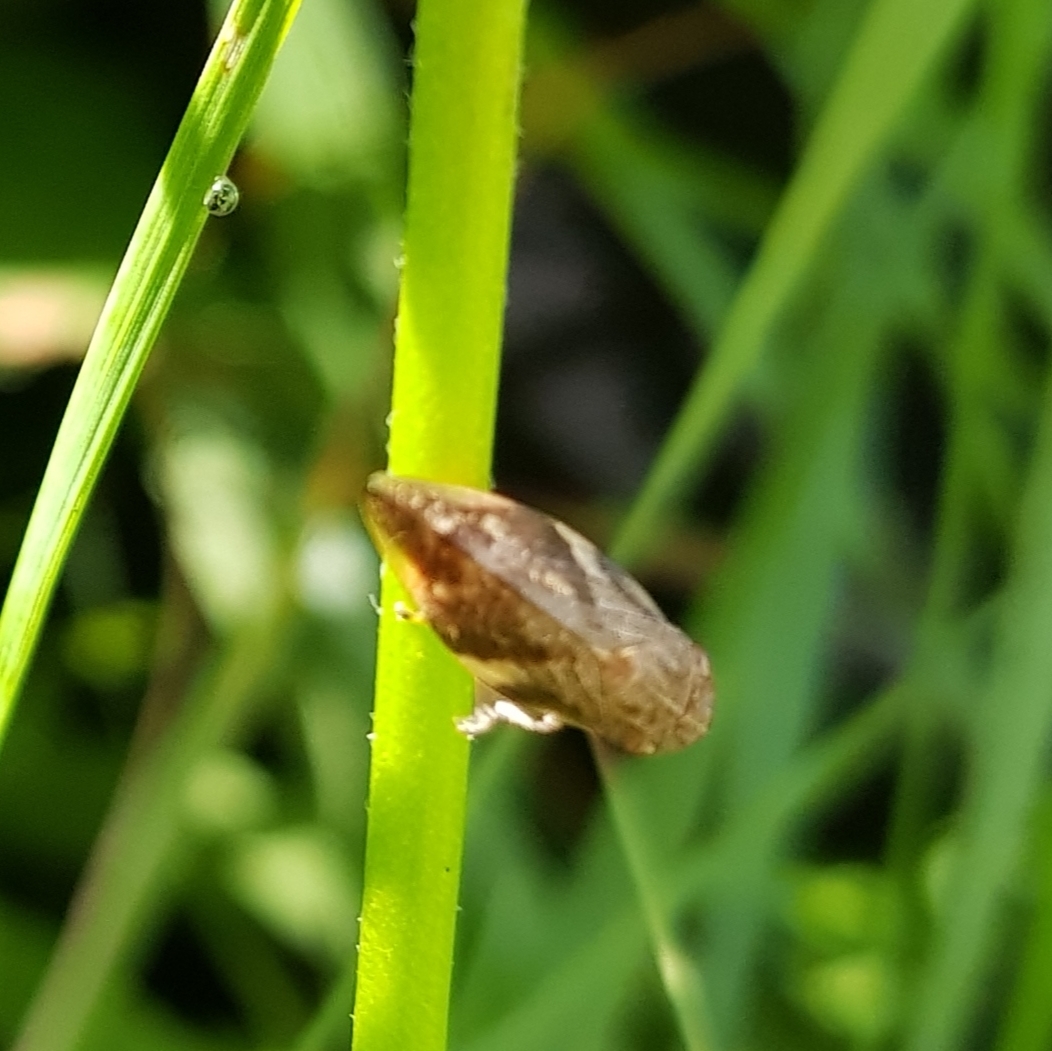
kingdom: Animalia
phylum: Arthropoda
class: Insecta
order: Hemiptera
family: Aphrophoridae
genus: Aphrophora
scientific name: Aphrophora alni
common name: European alder spittlebug
